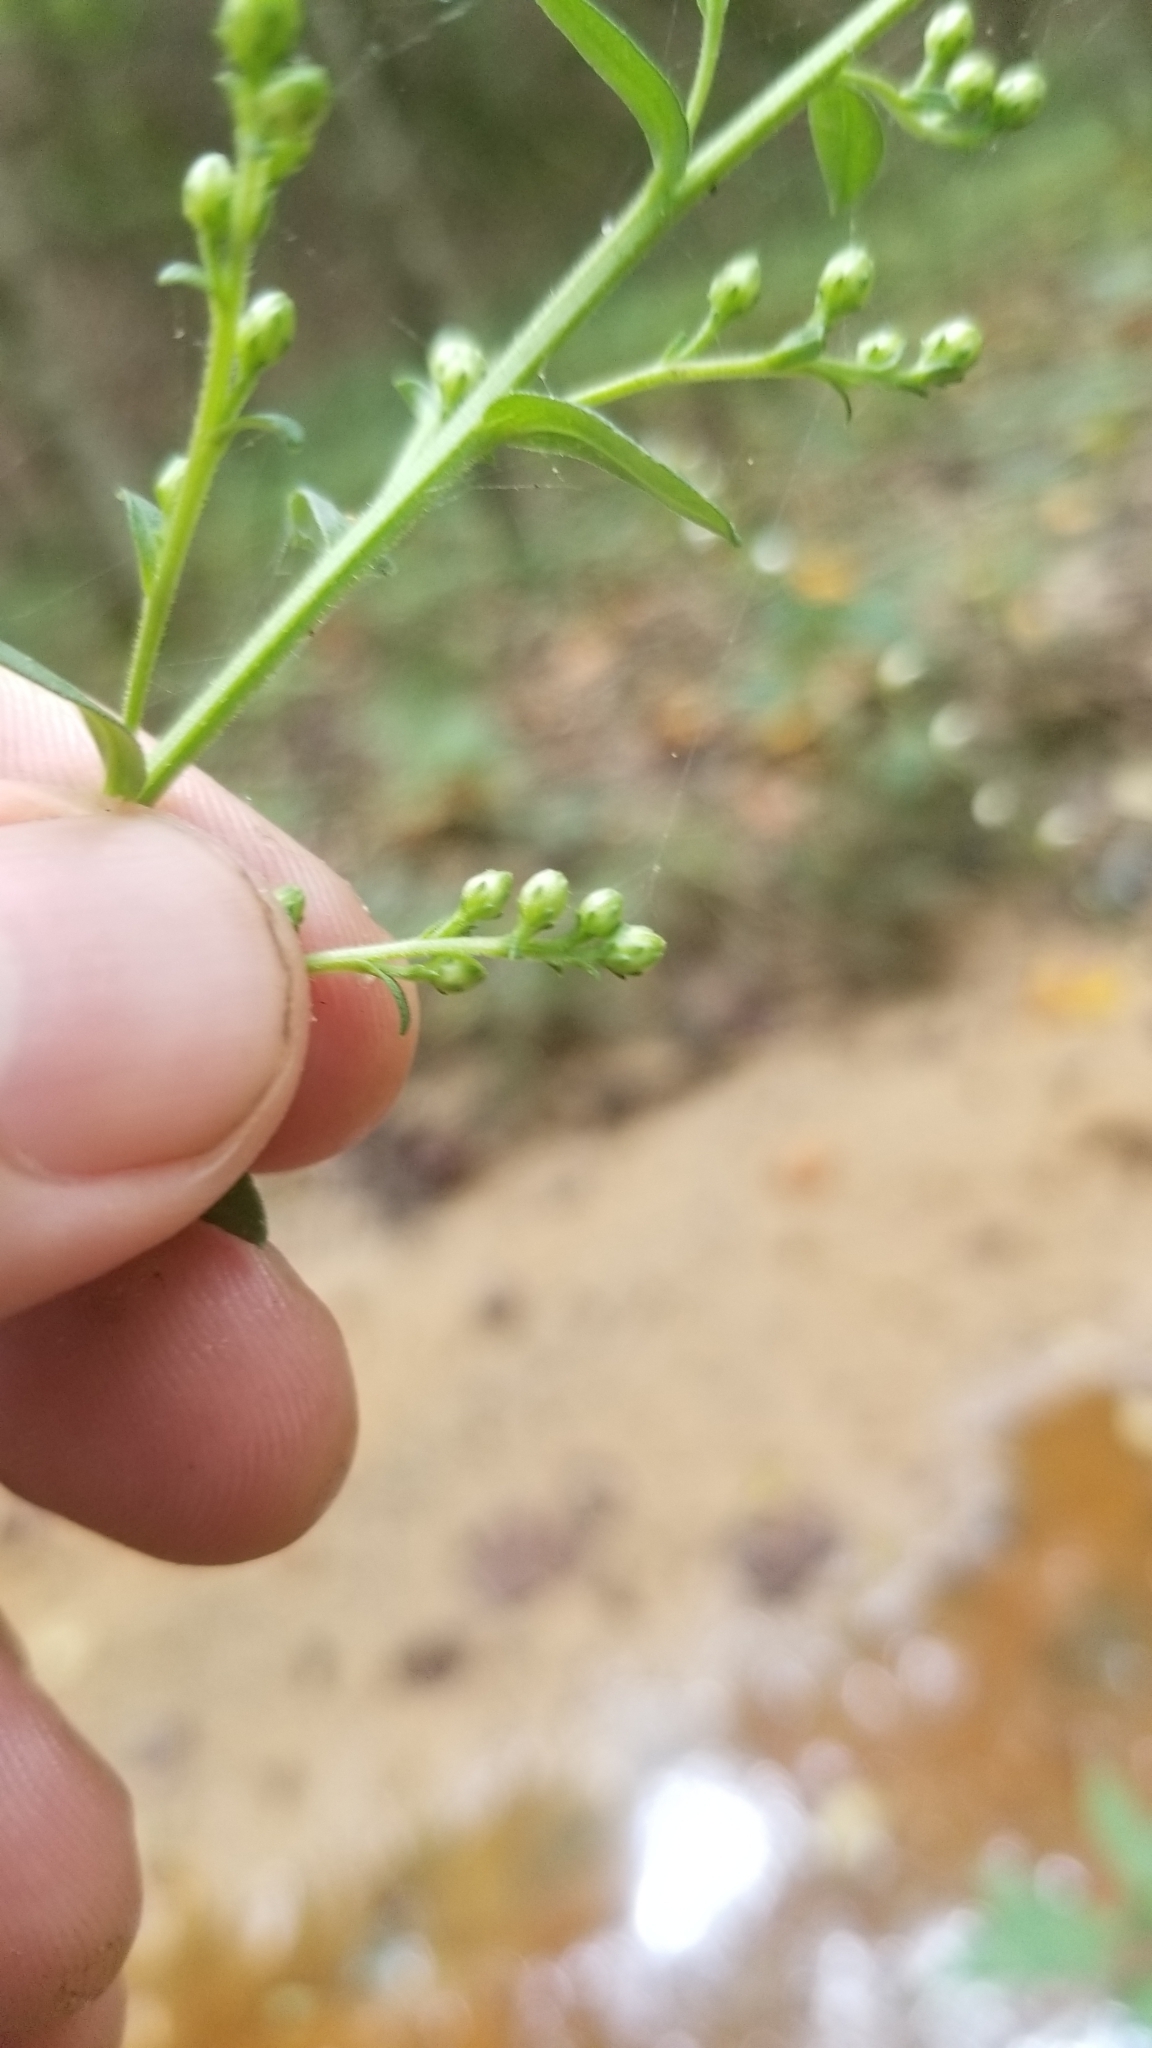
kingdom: Plantae
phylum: Tracheophyta
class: Magnoliopsida
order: Asterales
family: Asteraceae
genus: Solidago
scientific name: Solidago patula
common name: Rough-leaf goldenrod
